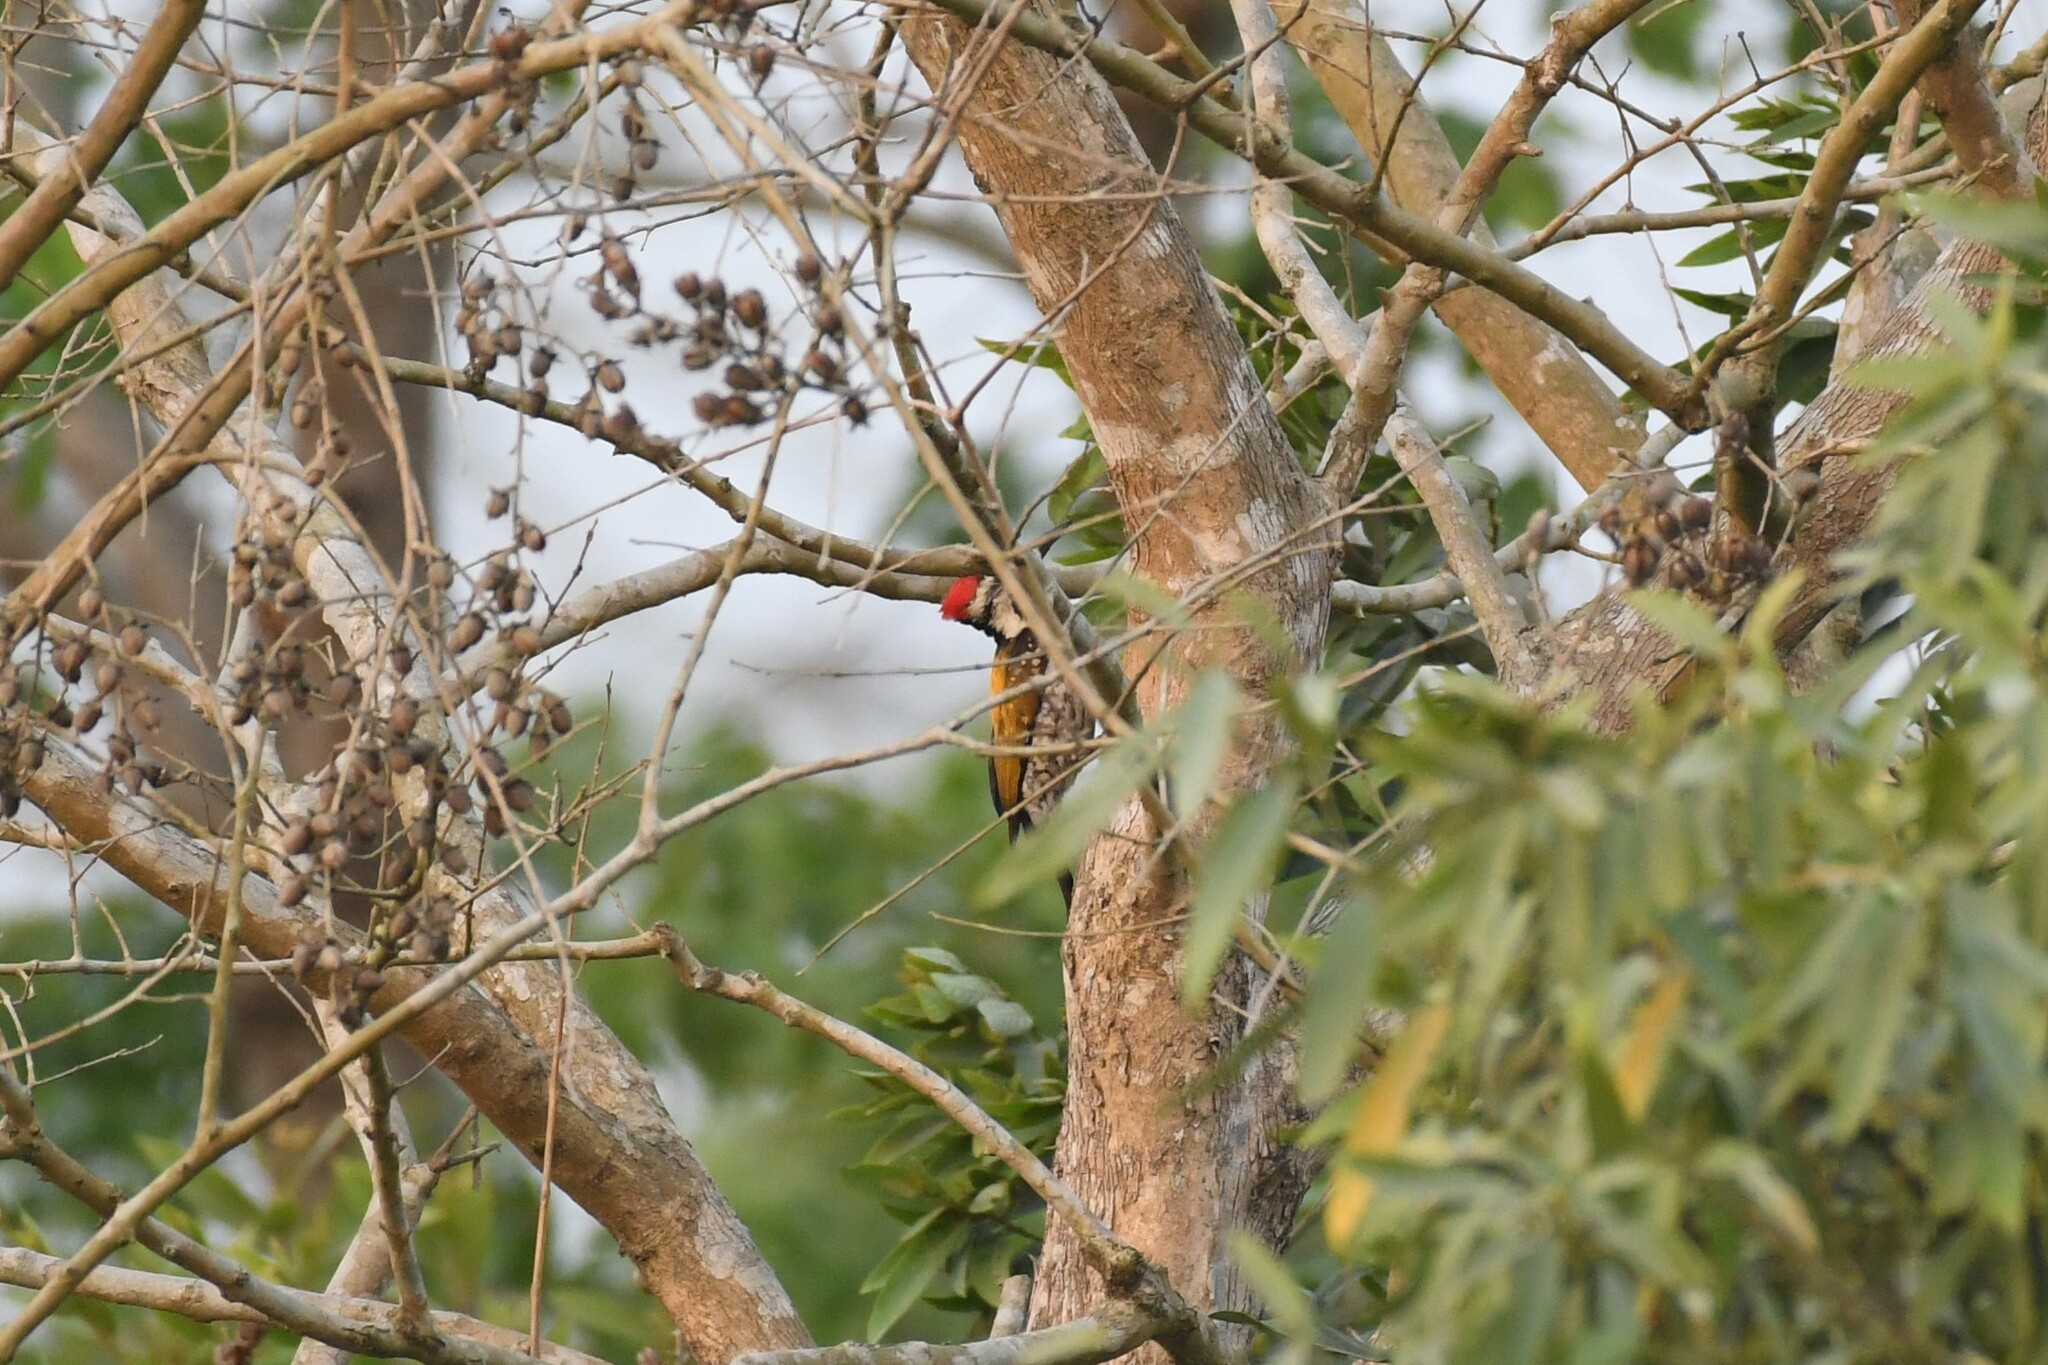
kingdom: Animalia
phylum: Chordata
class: Aves
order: Piciformes
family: Picidae
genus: Dinopium
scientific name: Dinopium benghalense
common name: Black-rumped flameback
